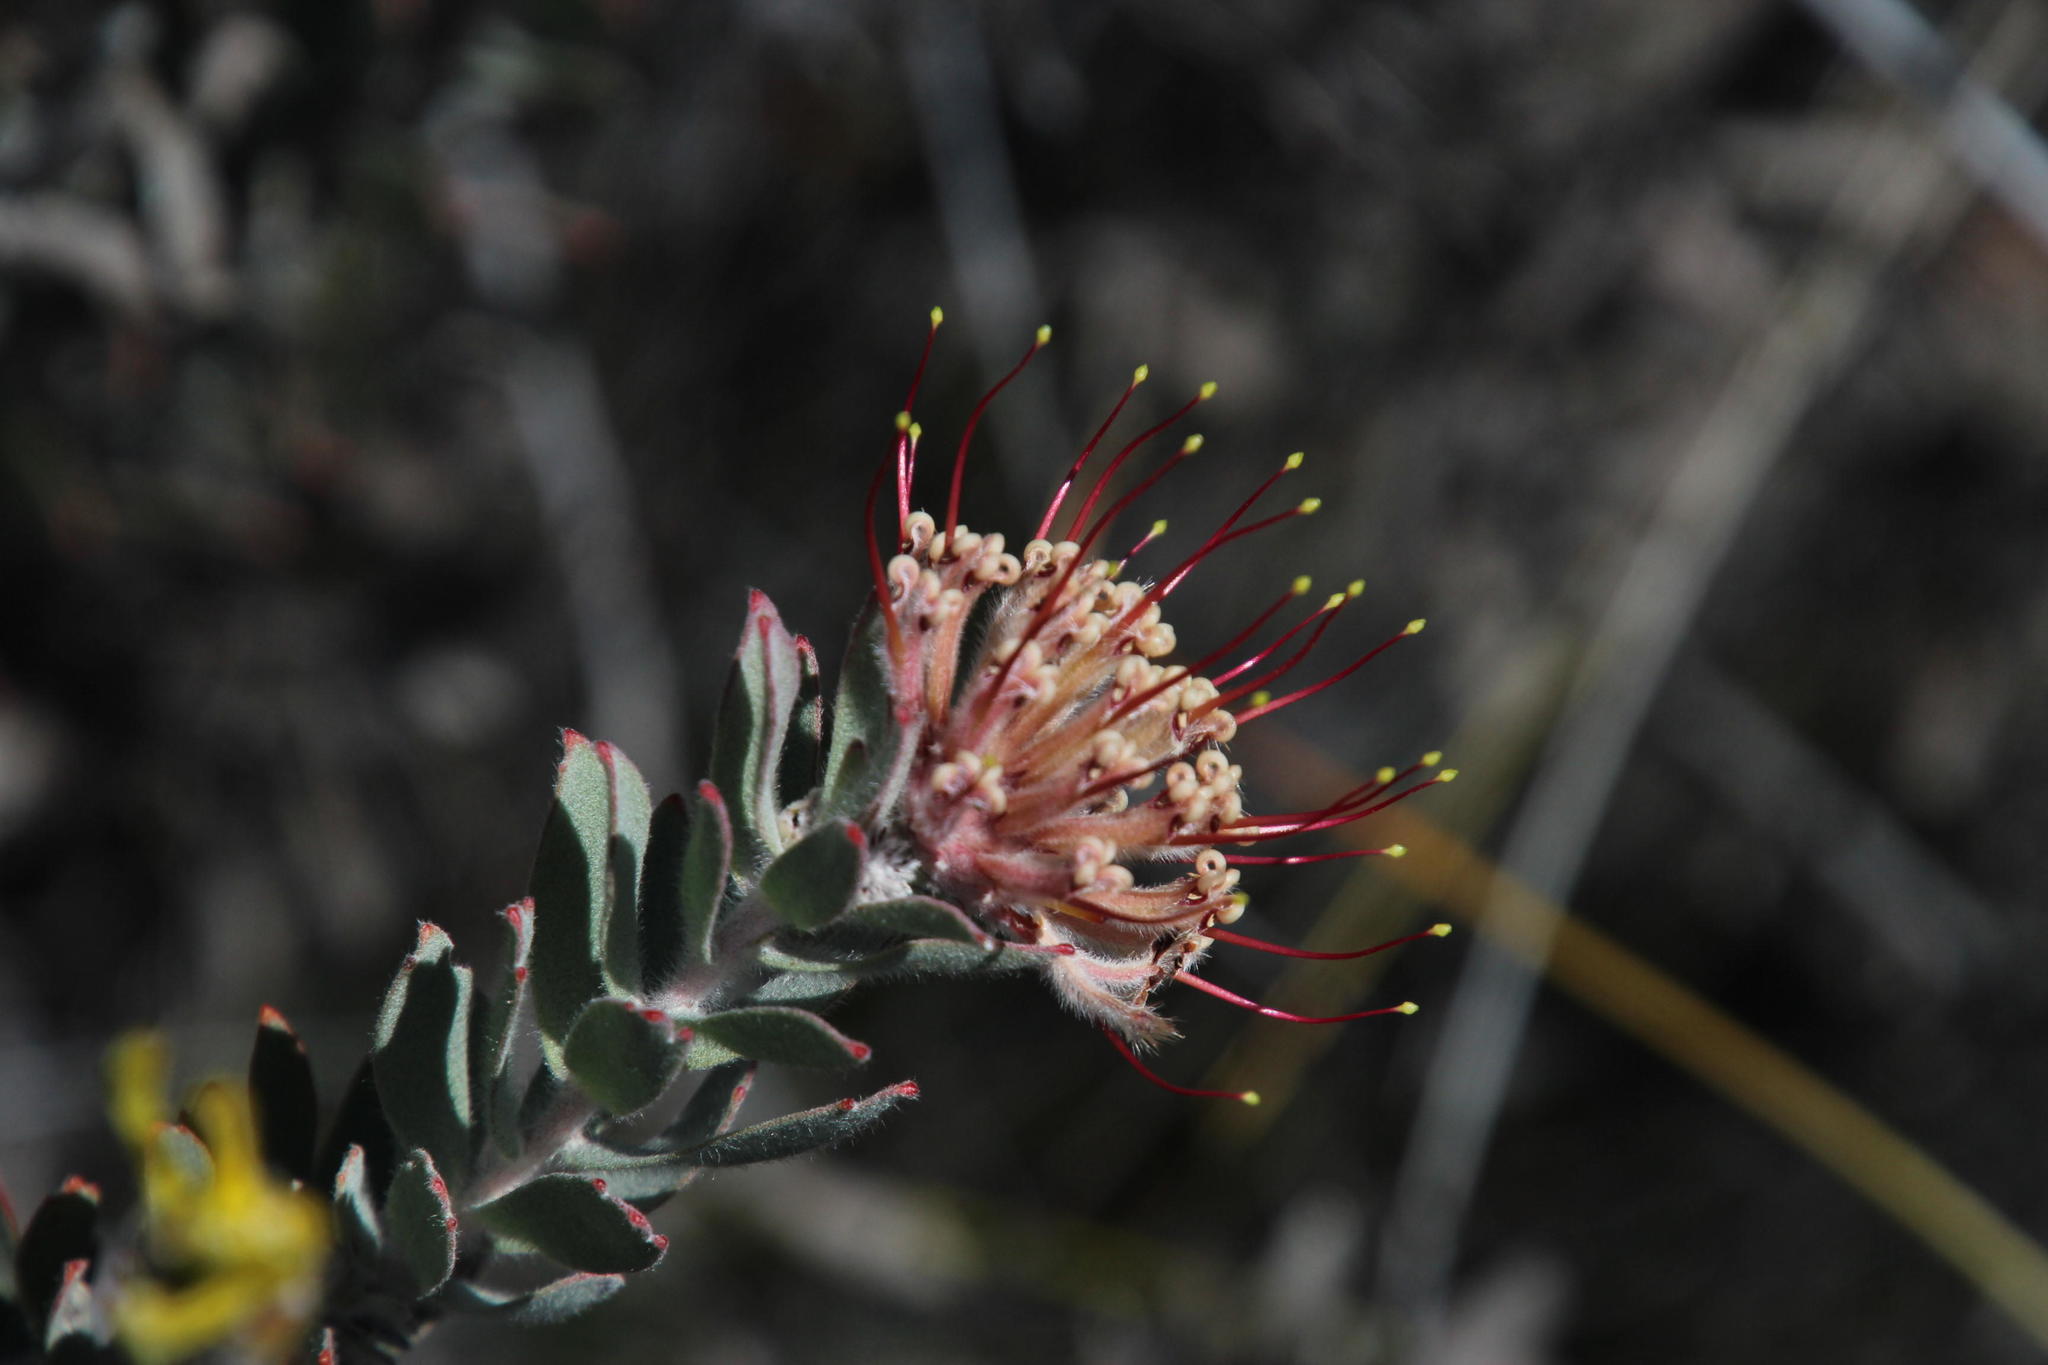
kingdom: Plantae
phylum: Tracheophyta
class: Magnoliopsida
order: Proteales
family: Proteaceae
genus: Leucospermum
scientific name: Leucospermum calligerum
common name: Arid pincushion
